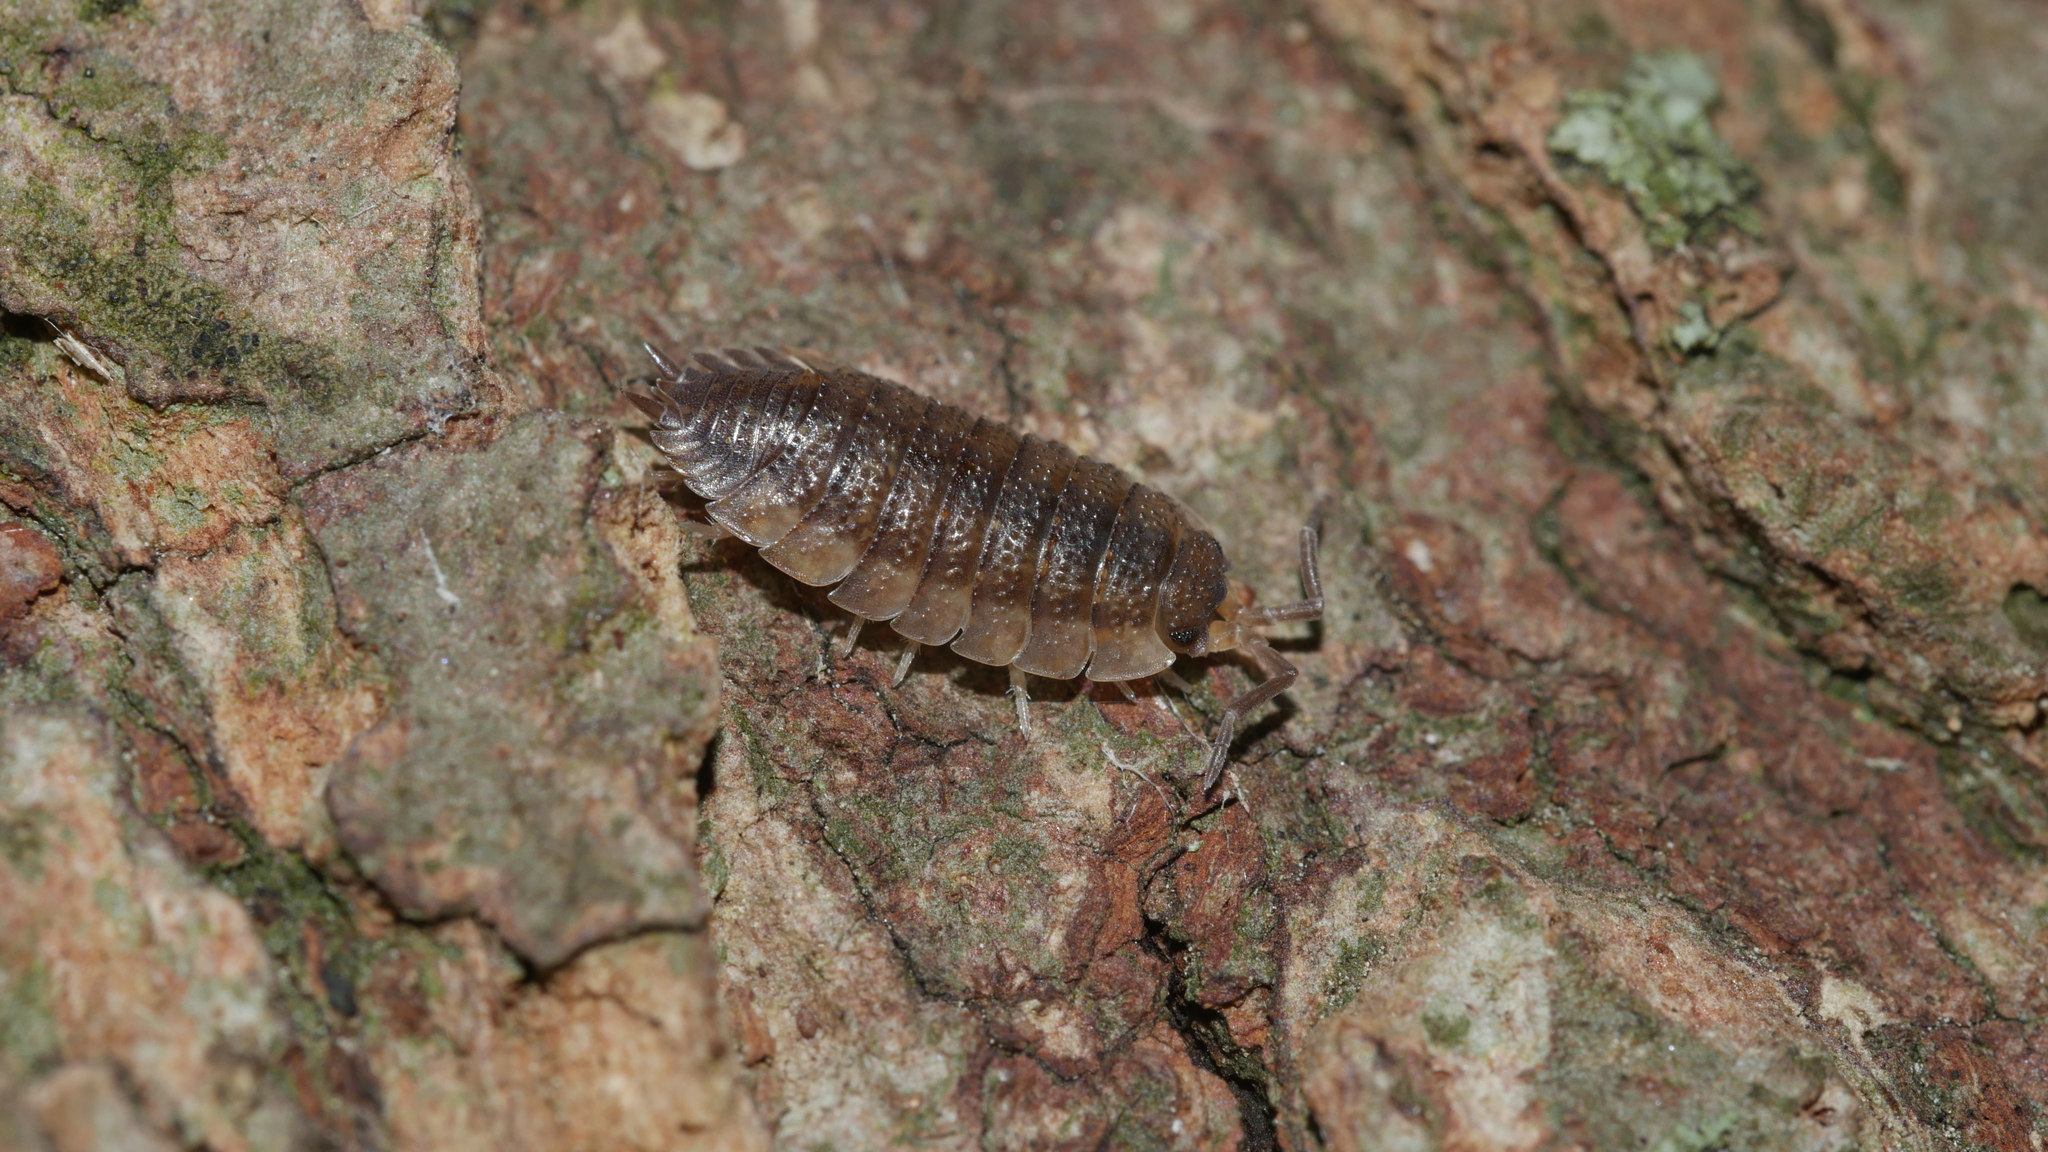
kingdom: Animalia
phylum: Arthropoda
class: Malacostraca
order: Isopoda
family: Porcellionidae
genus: Porcellio
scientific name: Porcellio scaber
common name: Common rough woodlouse
